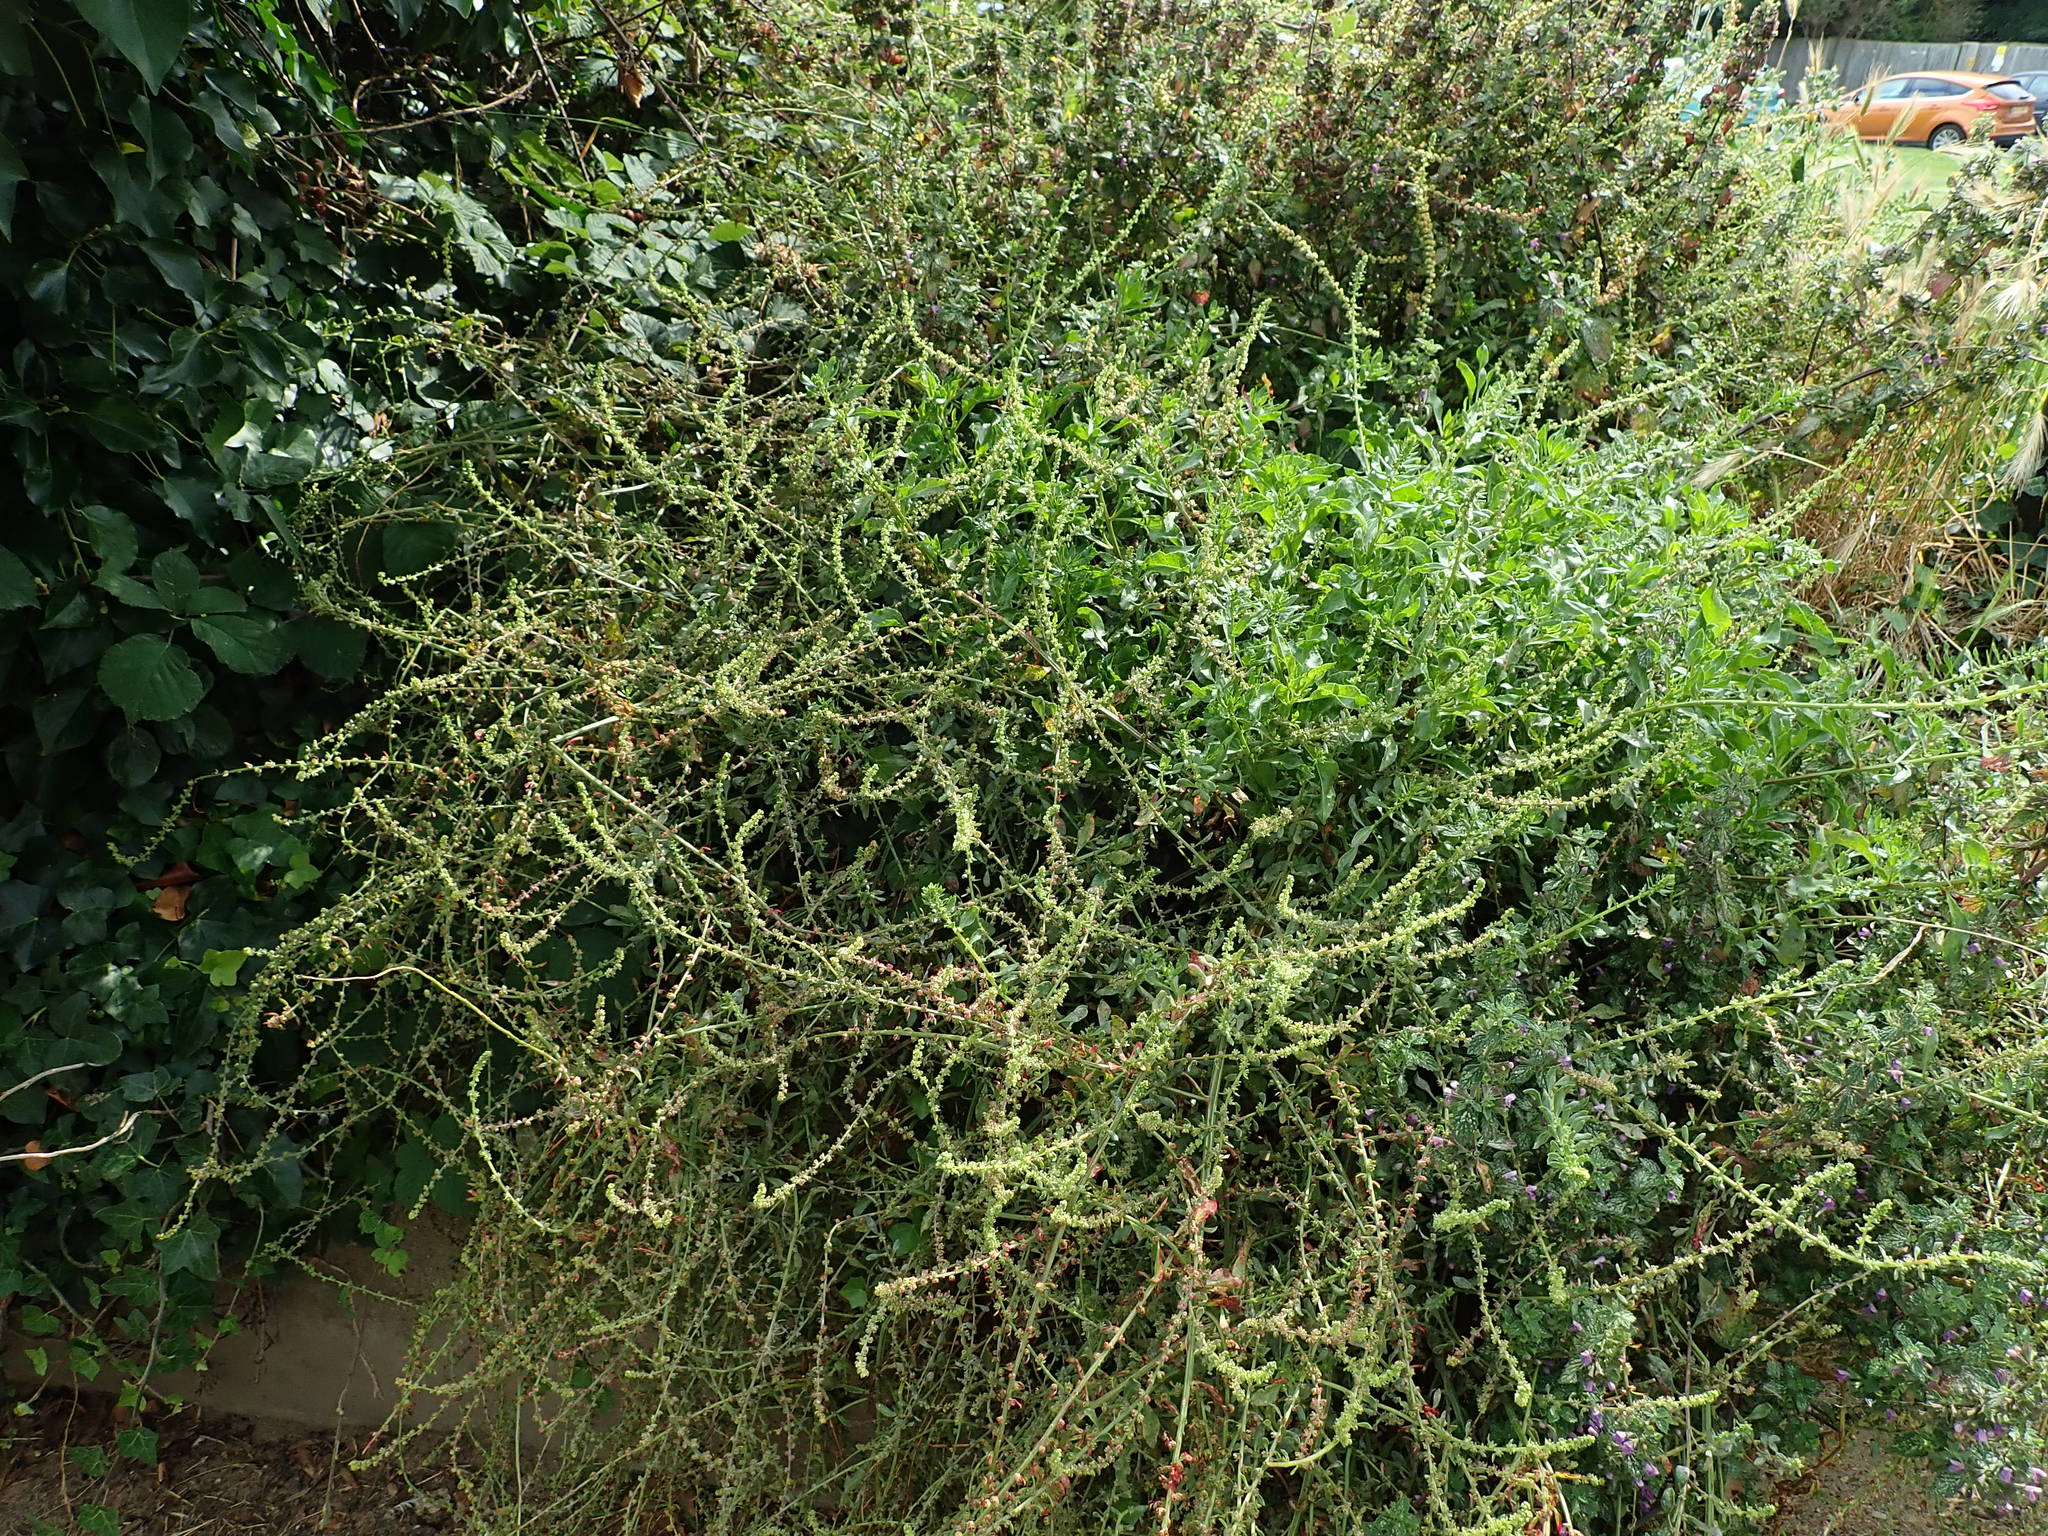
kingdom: Plantae
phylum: Tracheophyta
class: Magnoliopsida
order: Caryophyllales
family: Amaranthaceae
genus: Beta
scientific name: Beta vulgaris
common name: Beet
